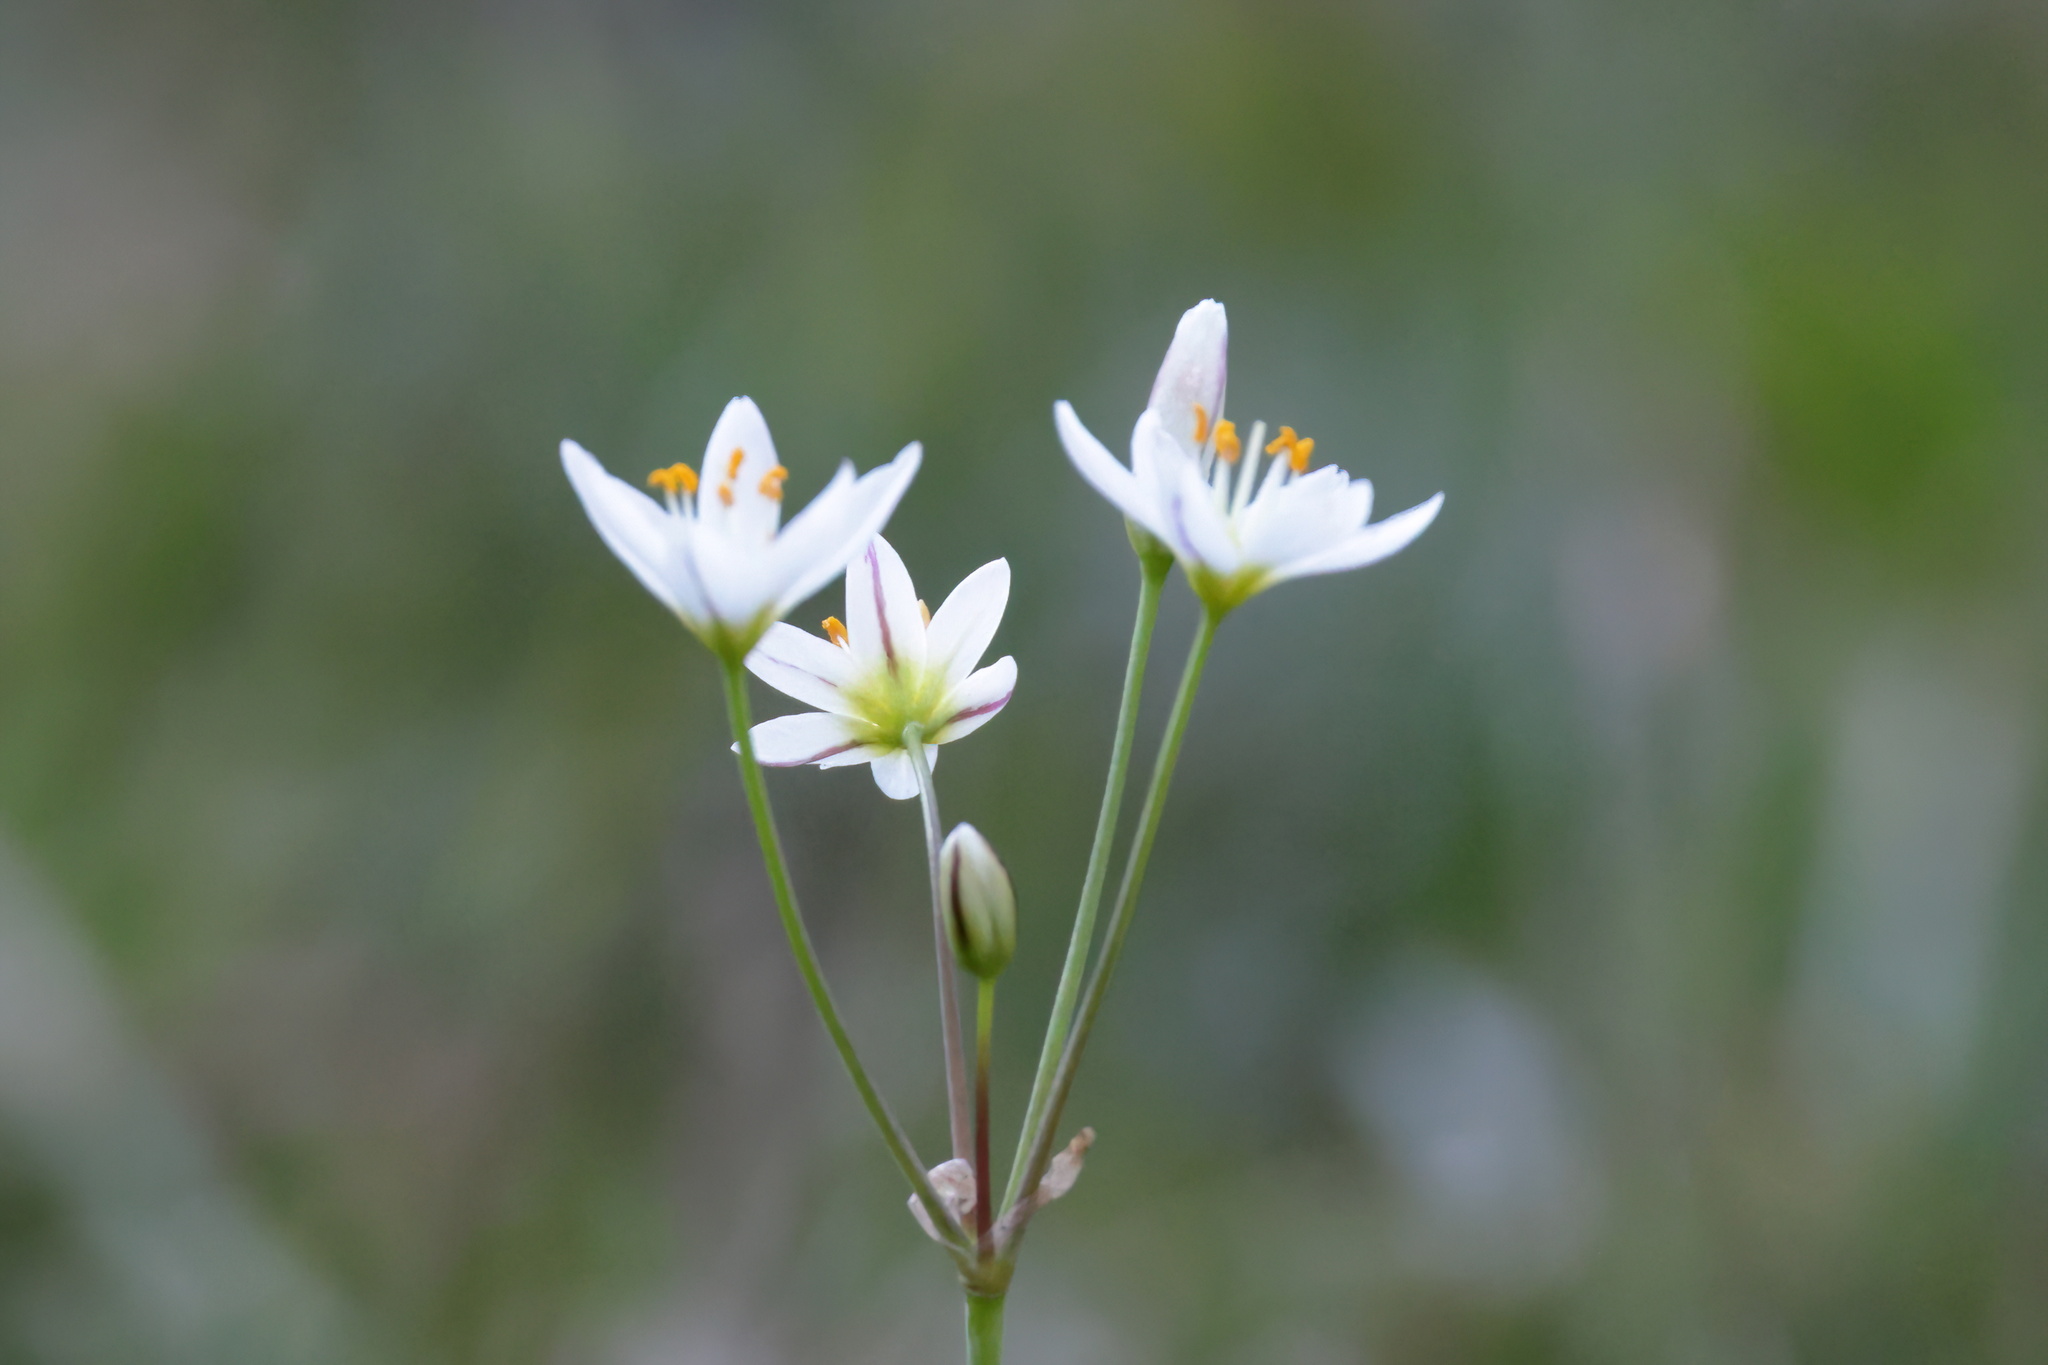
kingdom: Plantae
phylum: Tracheophyta
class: Liliopsida
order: Asparagales
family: Amaryllidaceae
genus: Nothoscordum
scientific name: Nothoscordum bivalve
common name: Crow-poison
